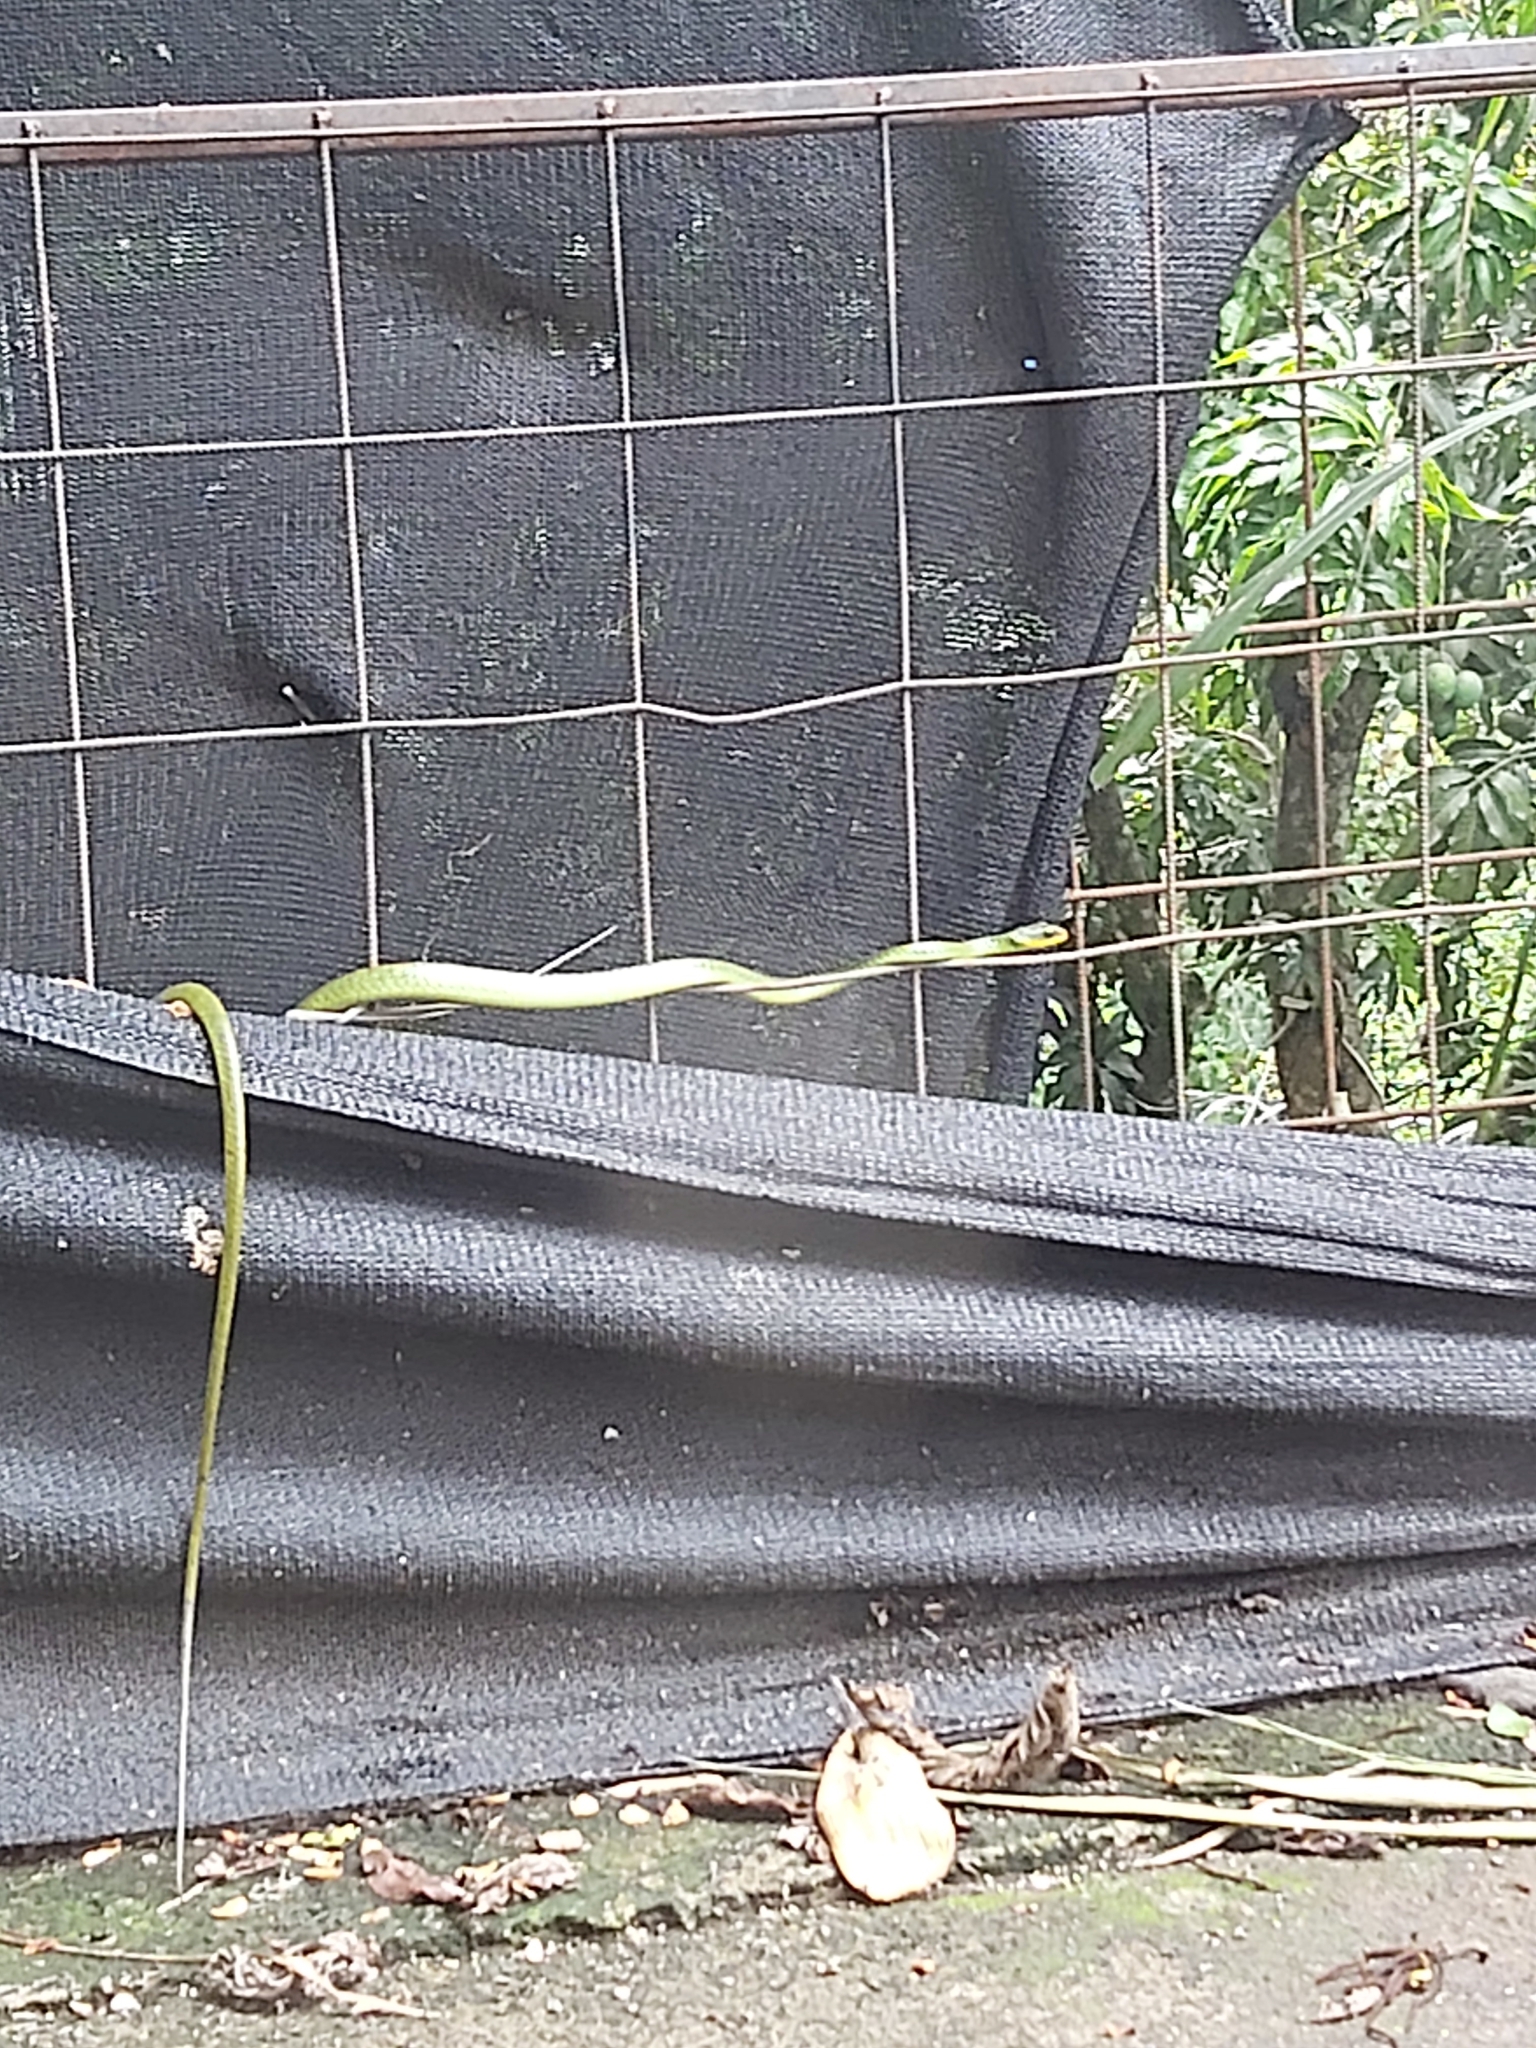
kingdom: Animalia
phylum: Chordata
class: Squamata
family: Colubridae
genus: Chironius
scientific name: Chironius exoletus
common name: Linnaeus' sipo
